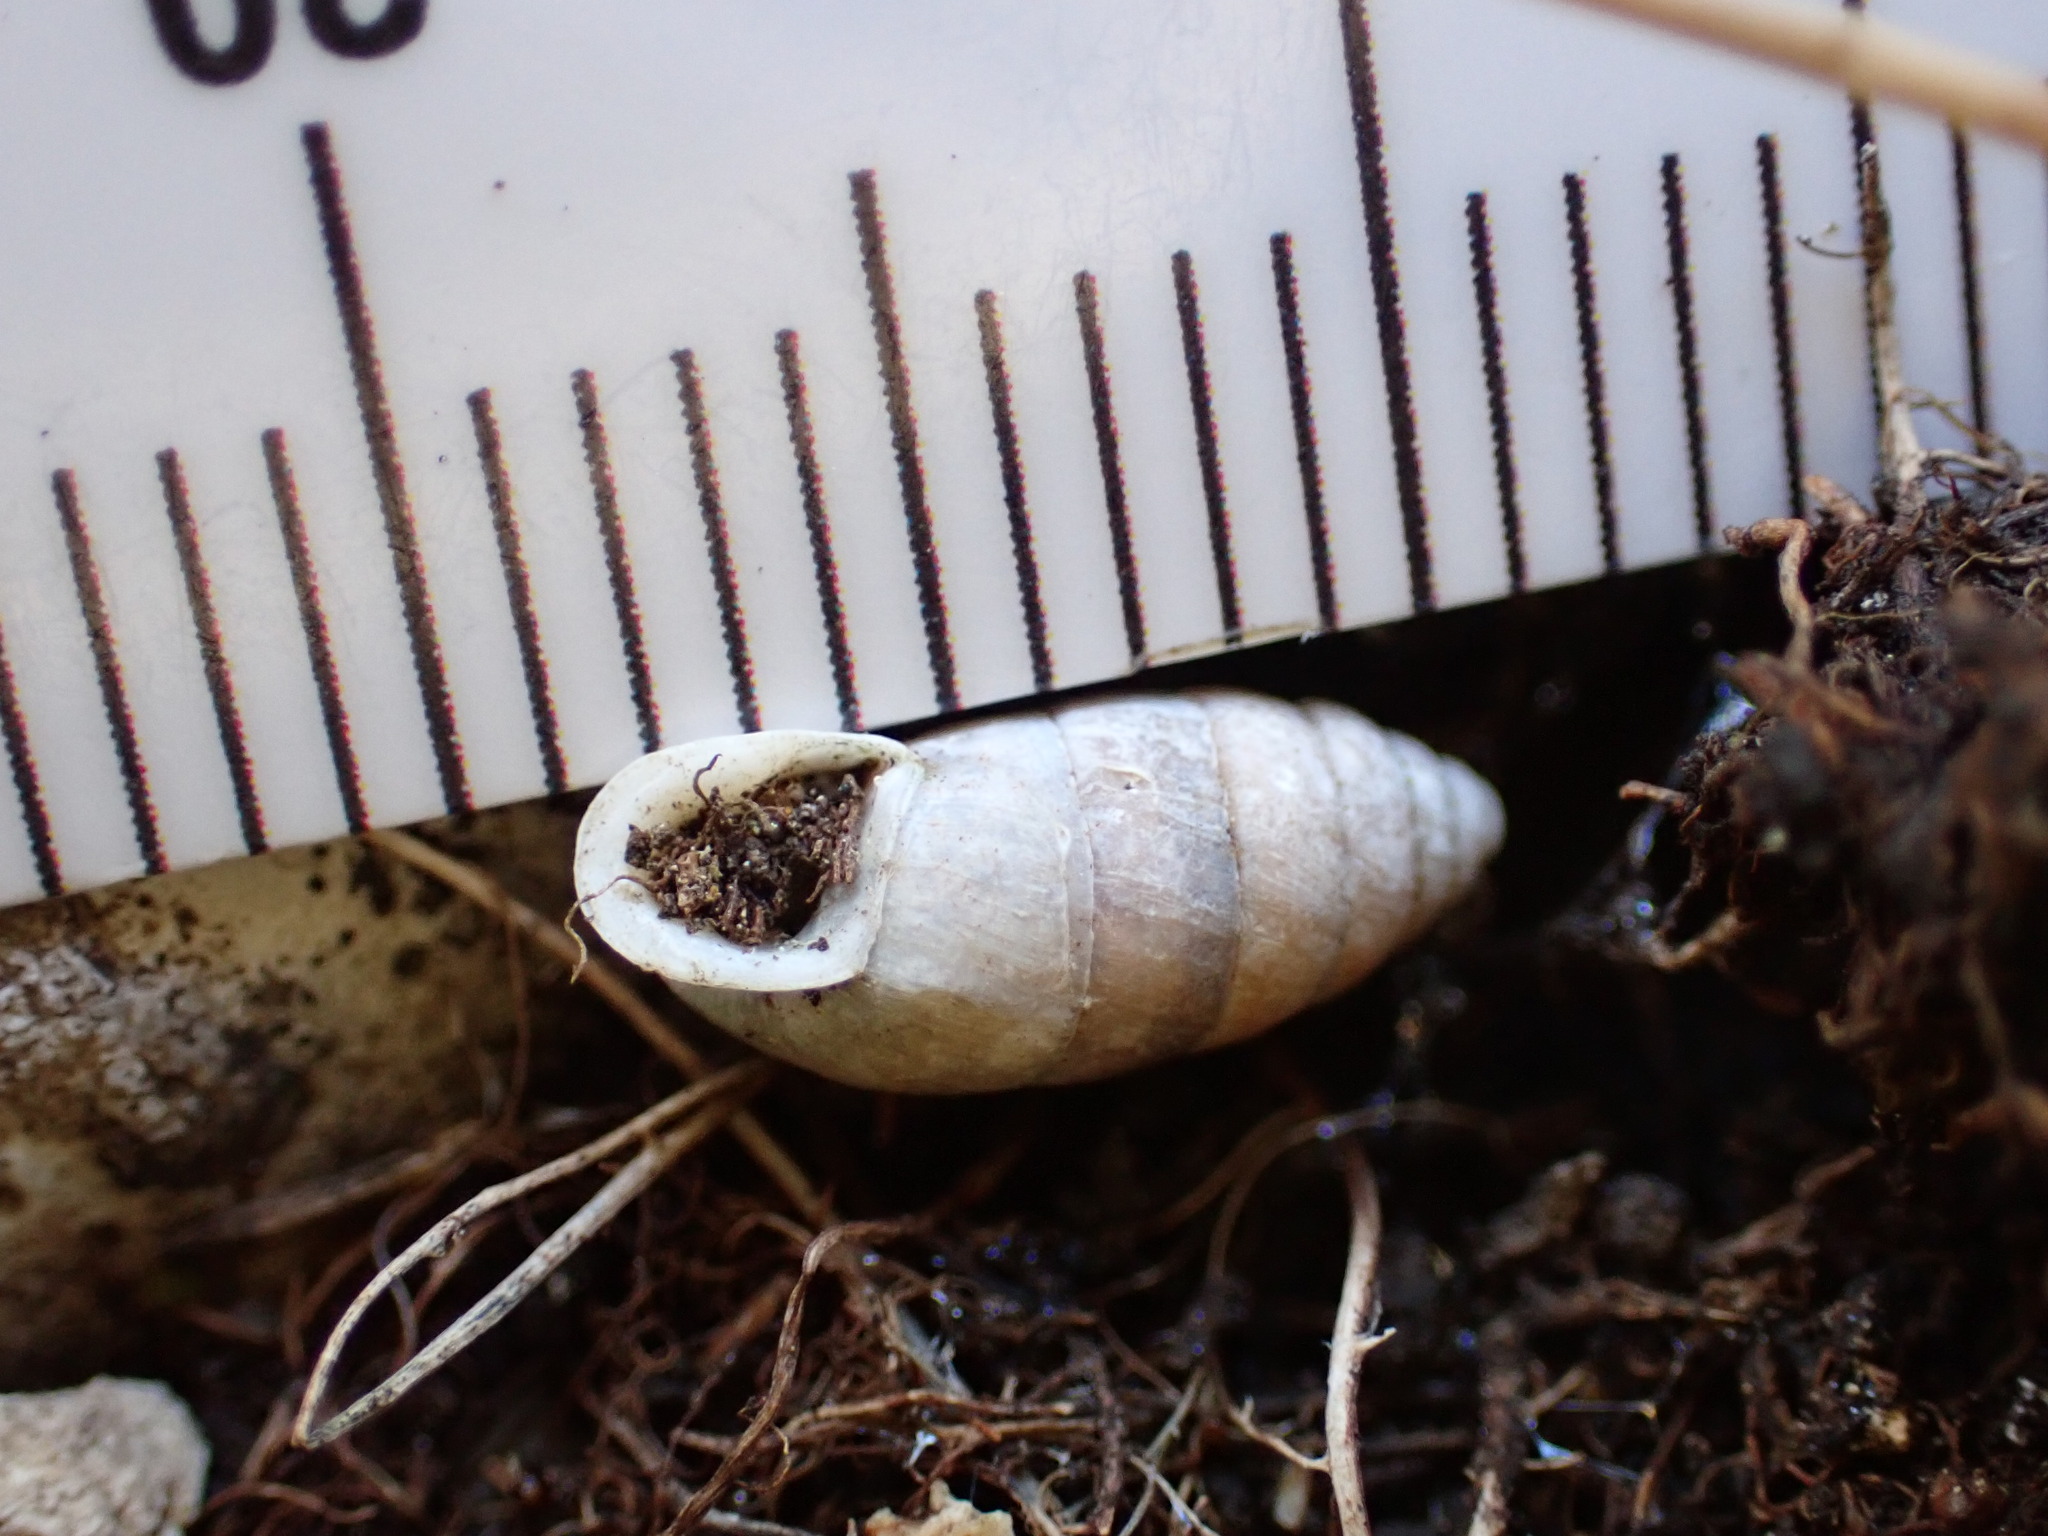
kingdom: Animalia
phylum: Mollusca
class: Gastropoda
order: Stylommatophora
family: Enidae
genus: Jaminia
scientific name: Jaminia quadridens
